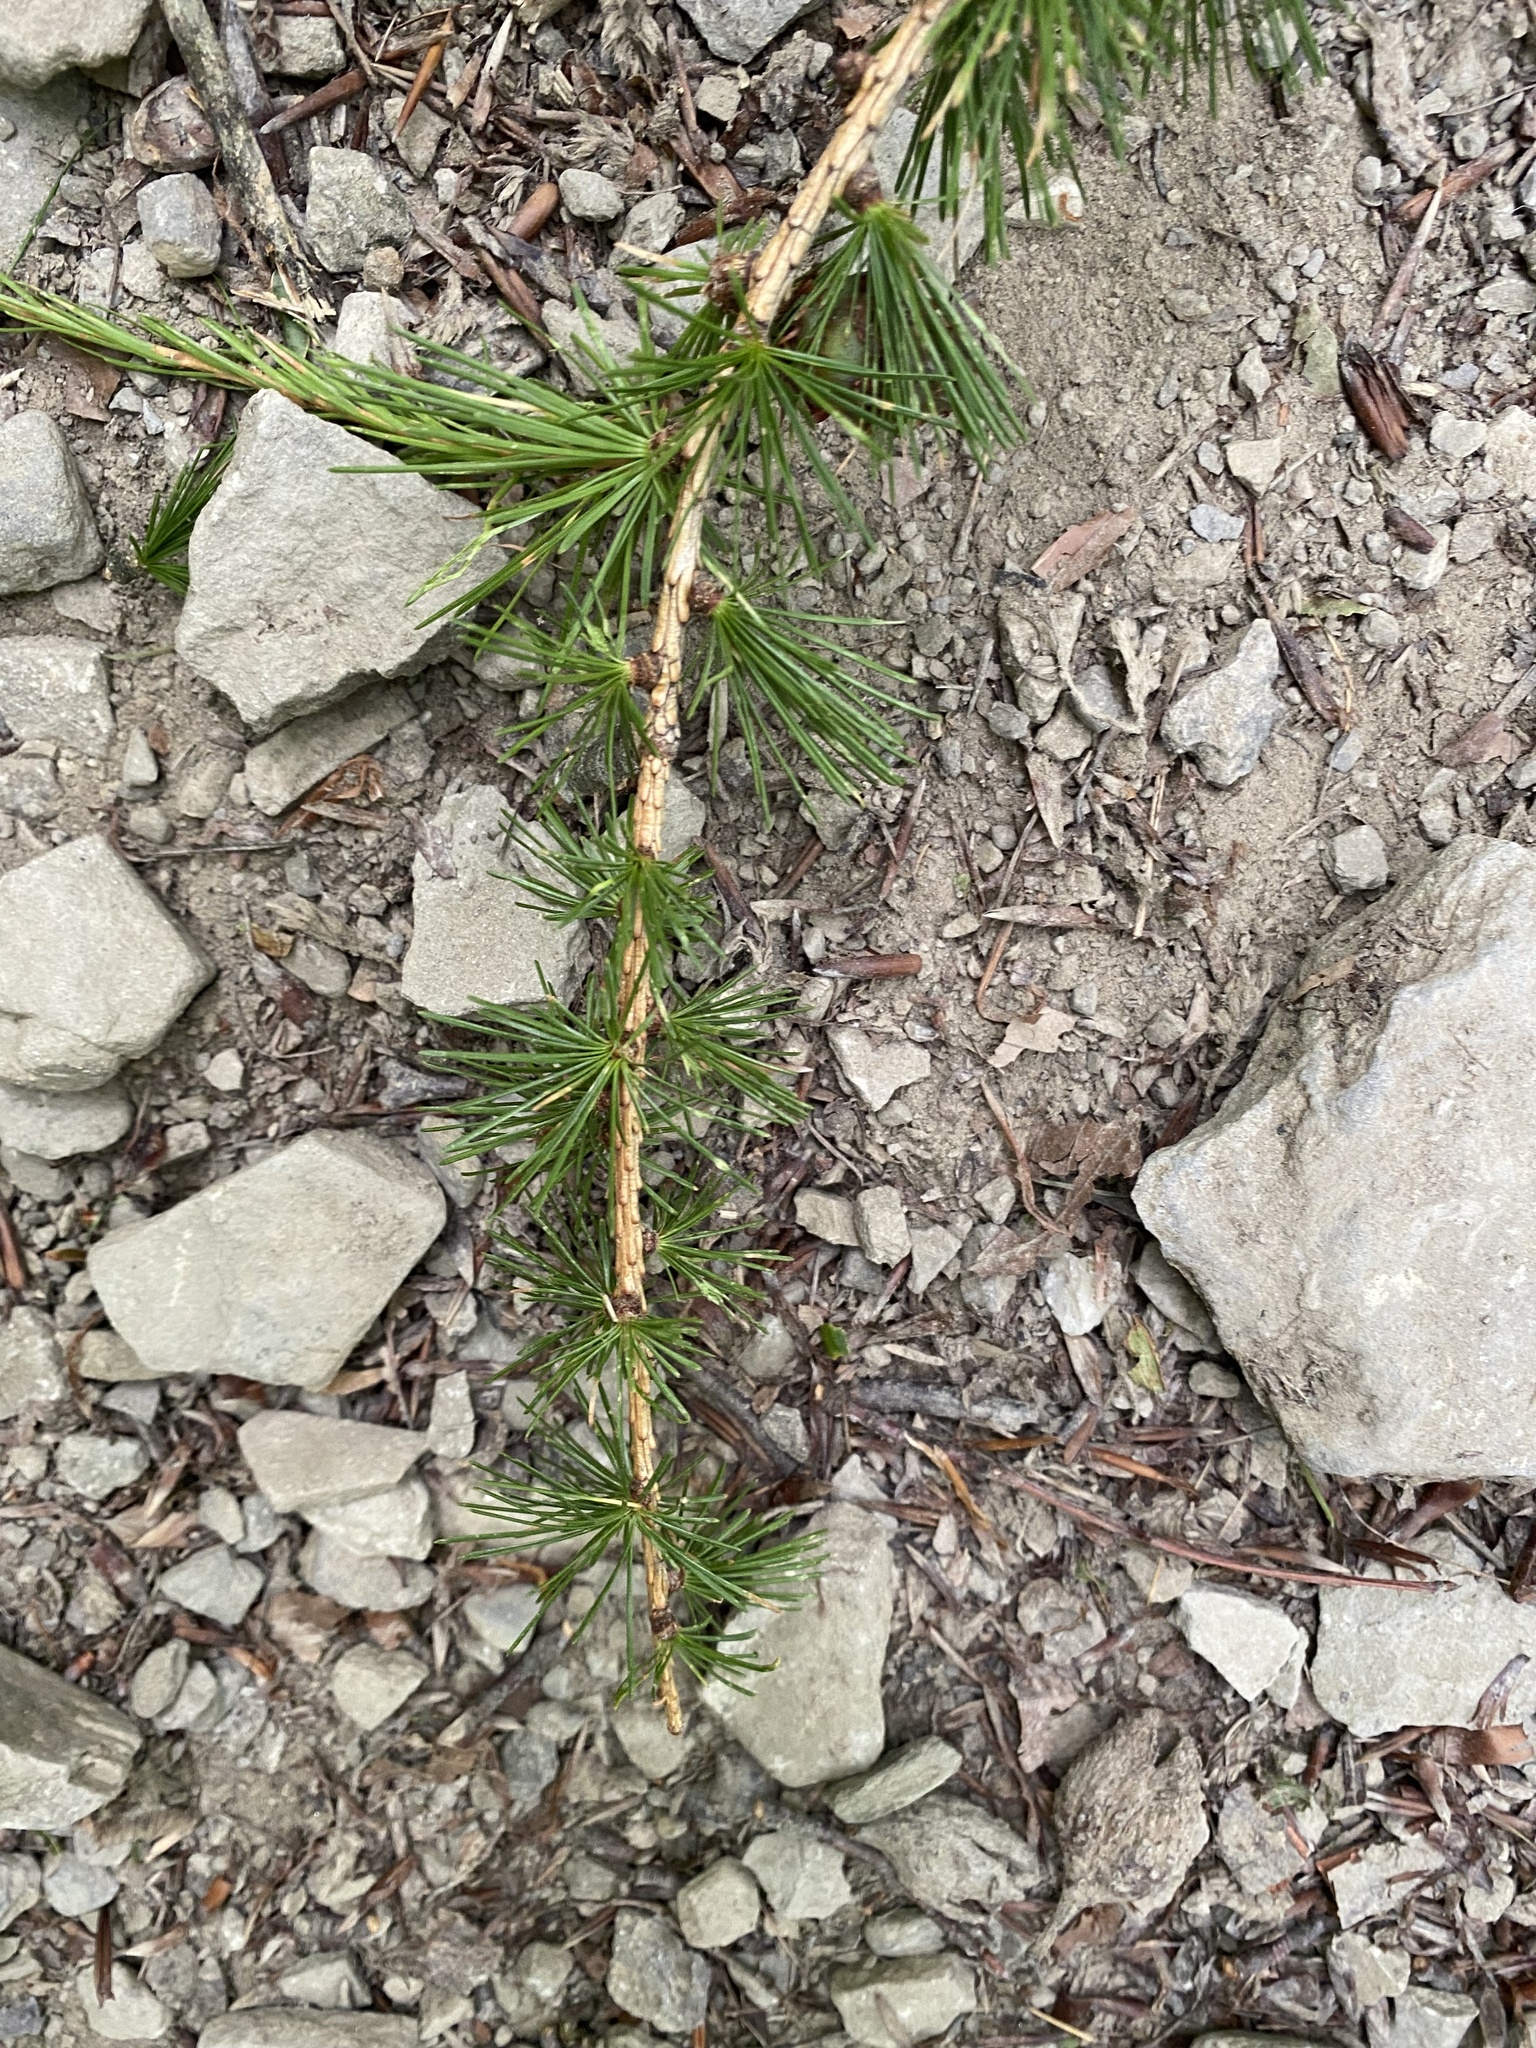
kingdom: Plantae
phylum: Tracheophyta
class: Pinopsida
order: Pinales
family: Pinaceae
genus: Larix
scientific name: Larix decidua
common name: European larch
